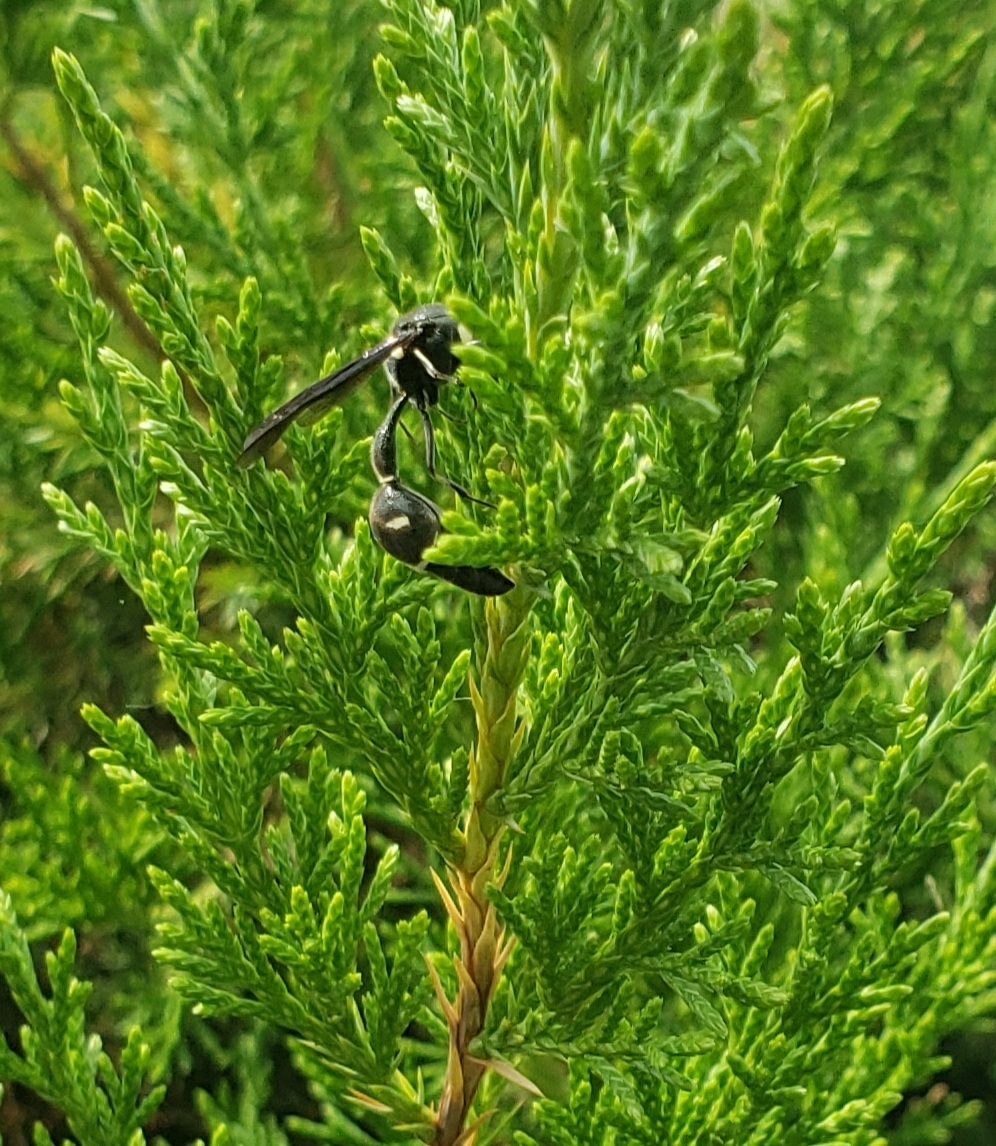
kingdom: Animalia
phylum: Arthropoda
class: Insecta
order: Hymenoptera
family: Vespidae
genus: Eumenes
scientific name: Eumenes fraternus
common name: Fraternal potter wasp
